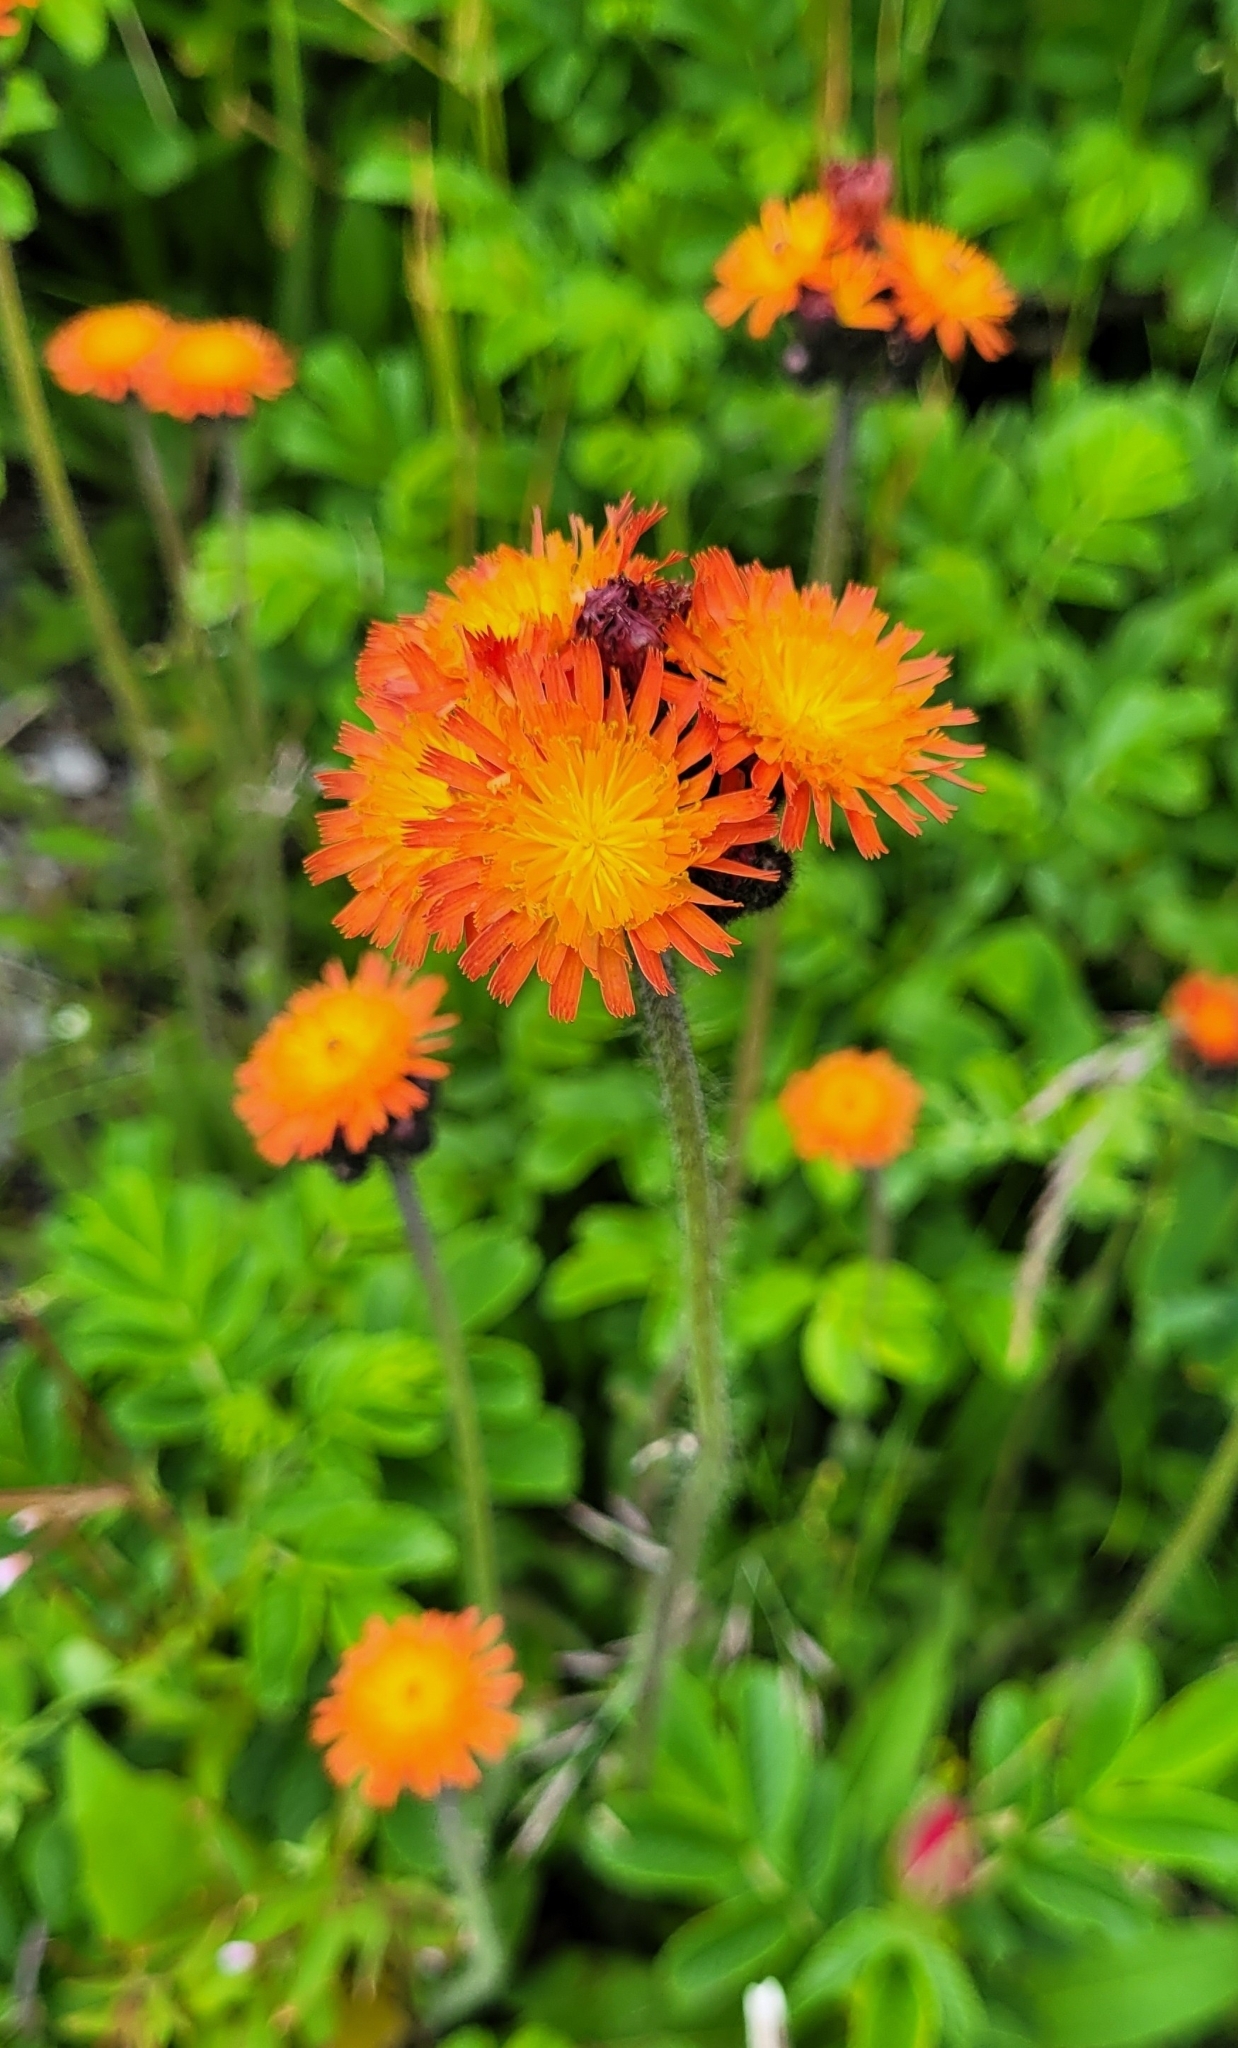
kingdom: Plantae
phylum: Tracheophyta
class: Magnoliopsida
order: Asterales
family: Asteraceae
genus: Pilosella
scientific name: Pilosella aurantiaca
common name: Fox-and-cubs
